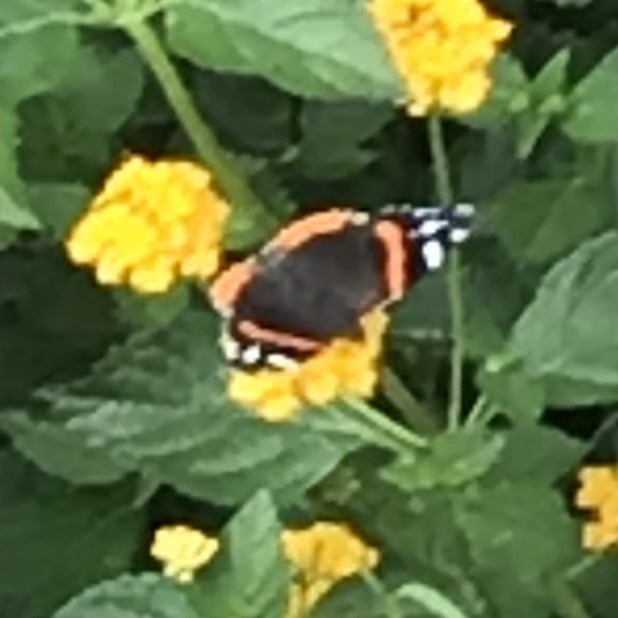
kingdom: Animalia
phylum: Arthropoda
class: Insecta
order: Lepidoptera
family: Nymphalidae
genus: Vanessa
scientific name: Vanessa atalanta
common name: Red admiral
